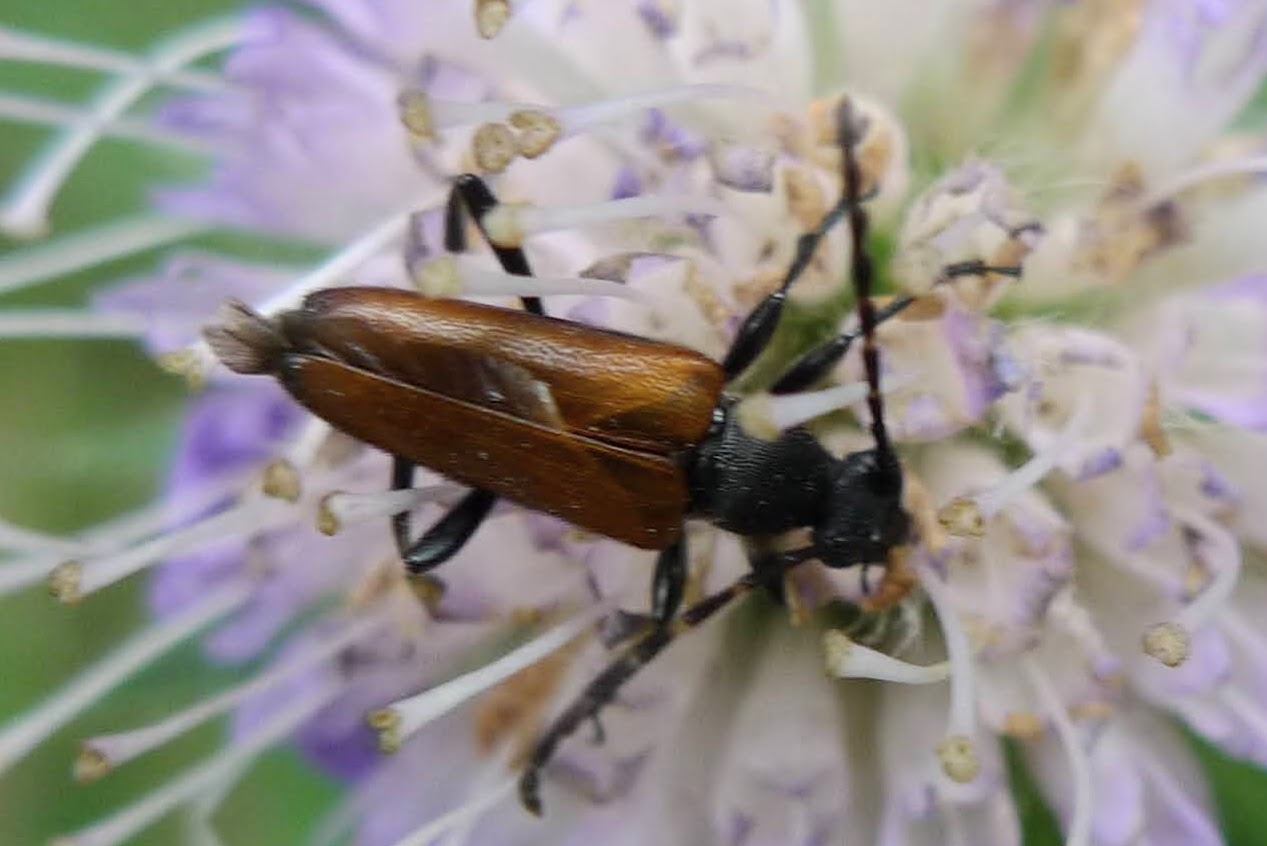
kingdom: Animalia
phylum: Arthropoda
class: Insecta
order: Coleoptera
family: Cerambycidae
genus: Paracorymbia
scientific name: Paracorymbia maculicornis
